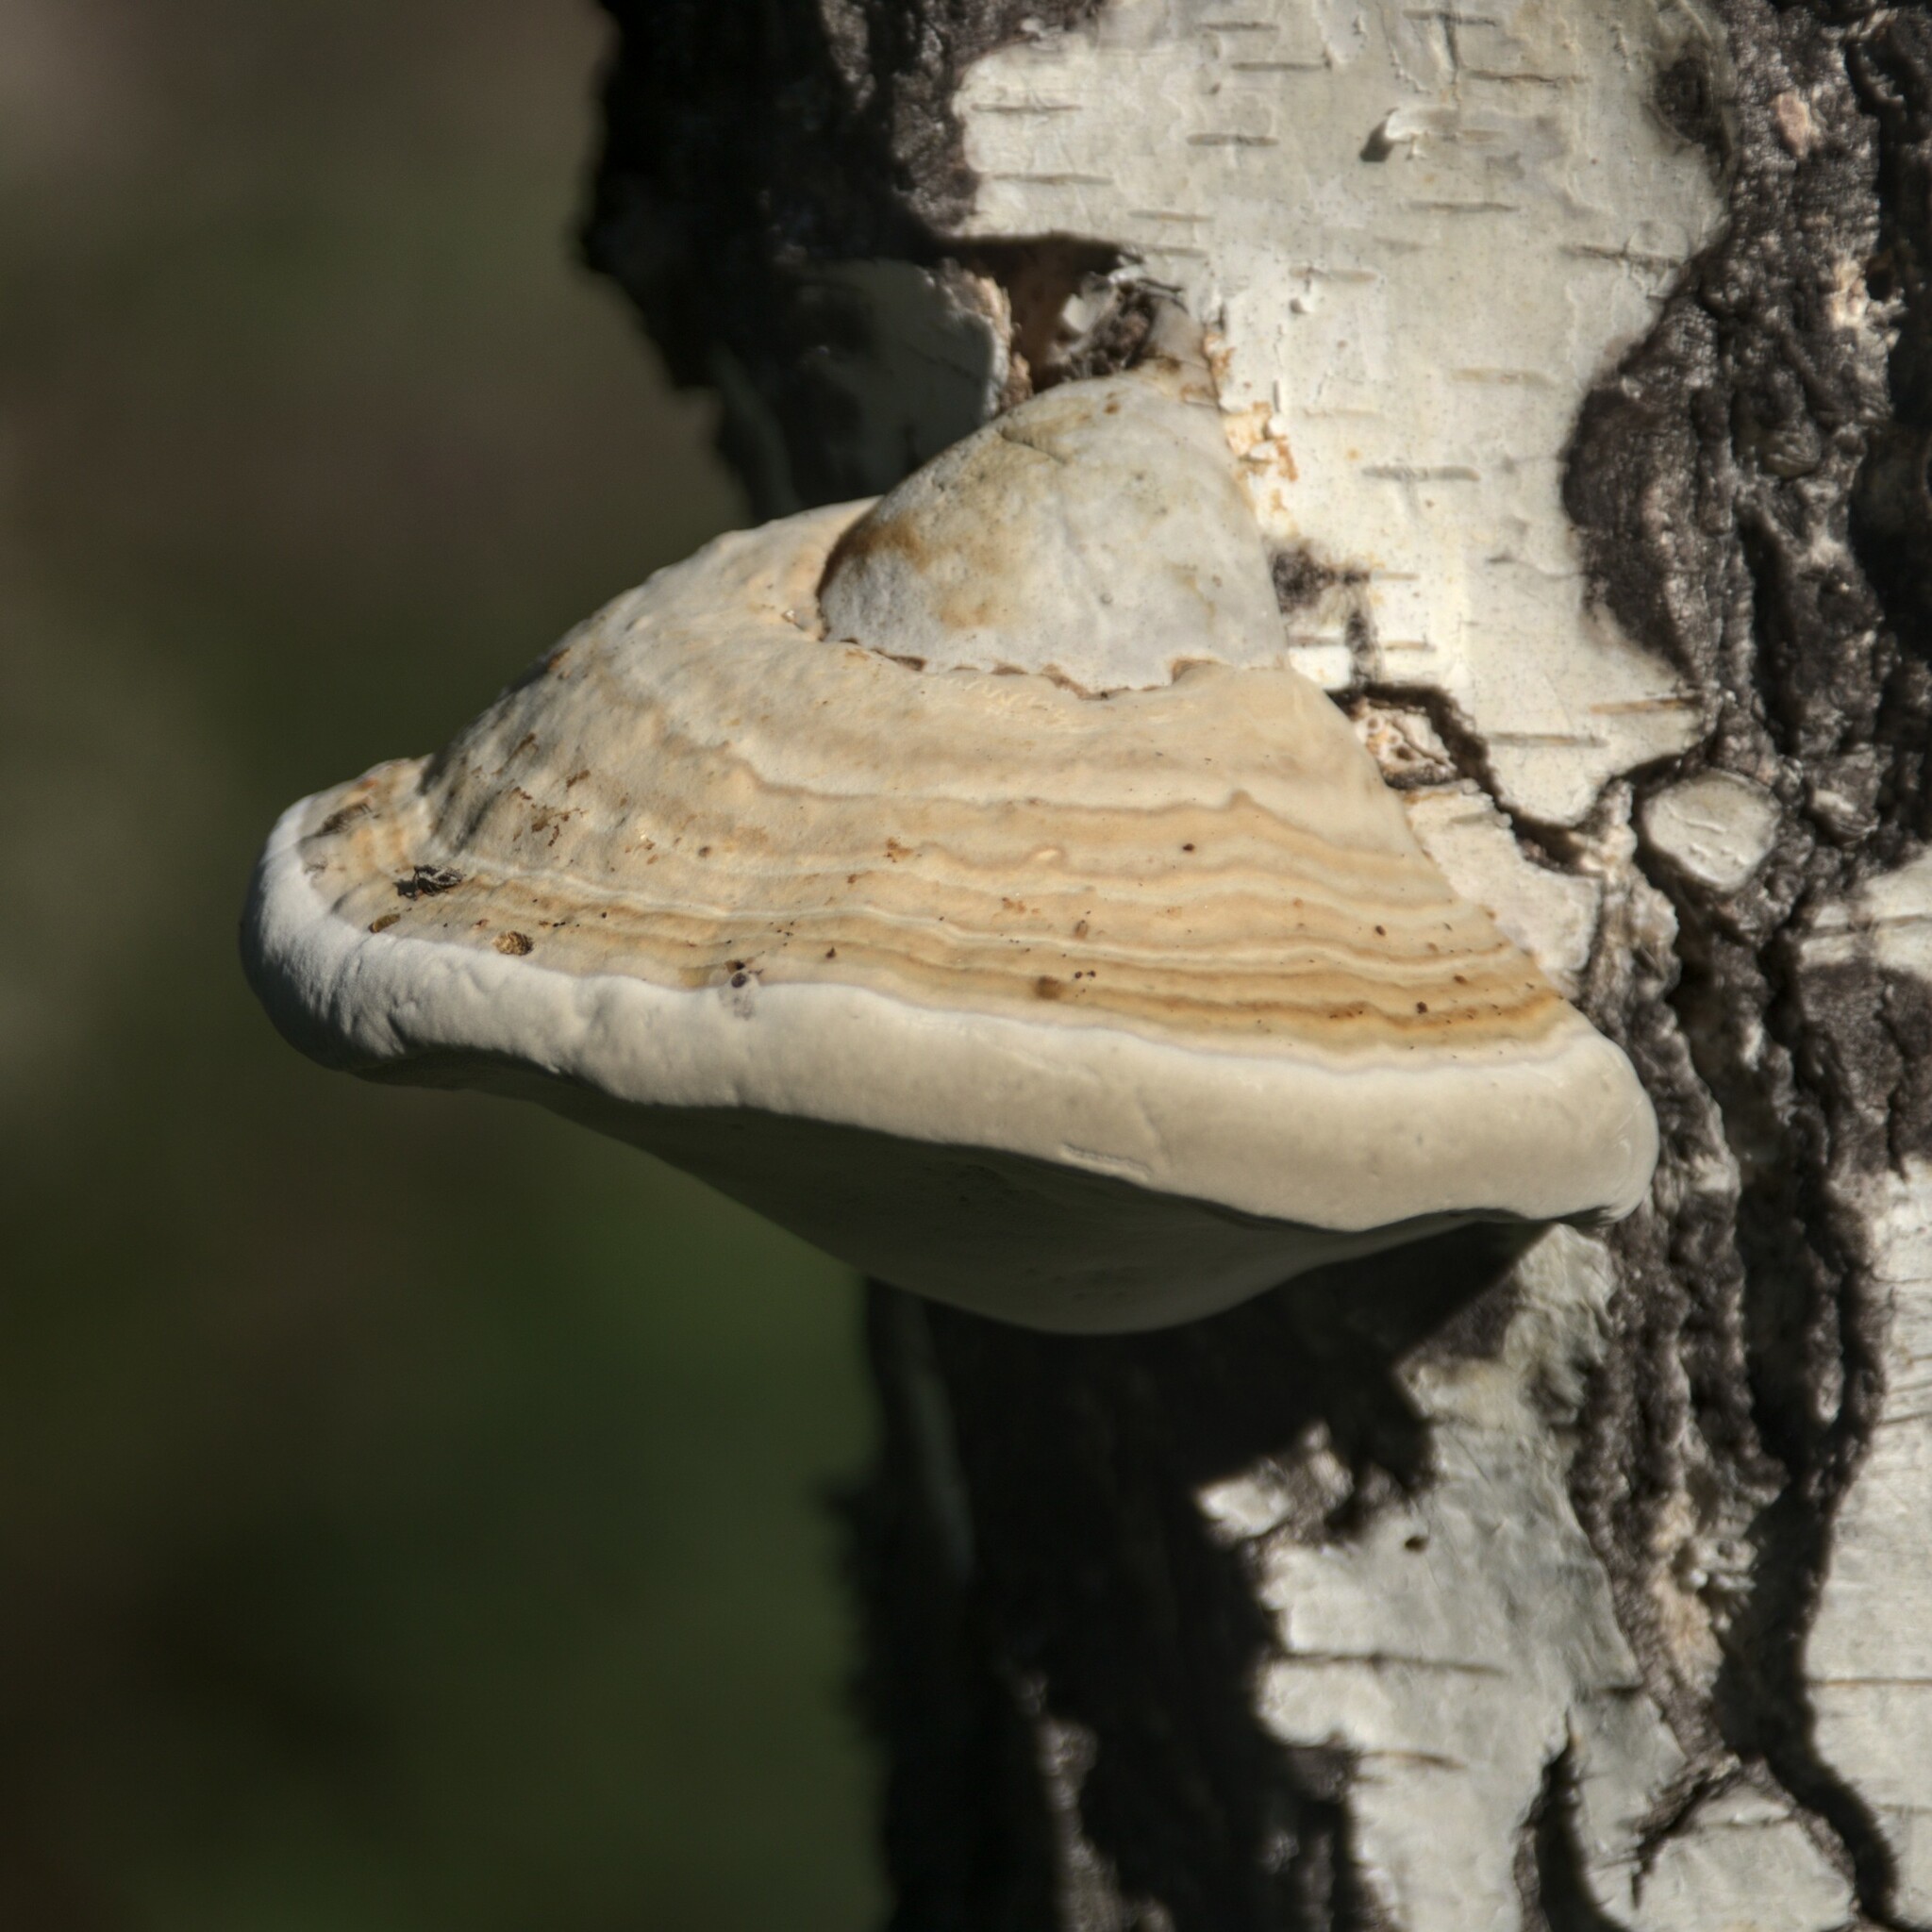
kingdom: Fungi
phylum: Basidiomycota
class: Agaricomycetes
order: Polyporales
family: Polyporaceae
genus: Fomes
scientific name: Fomes fomentarius
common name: Hoof fungus
